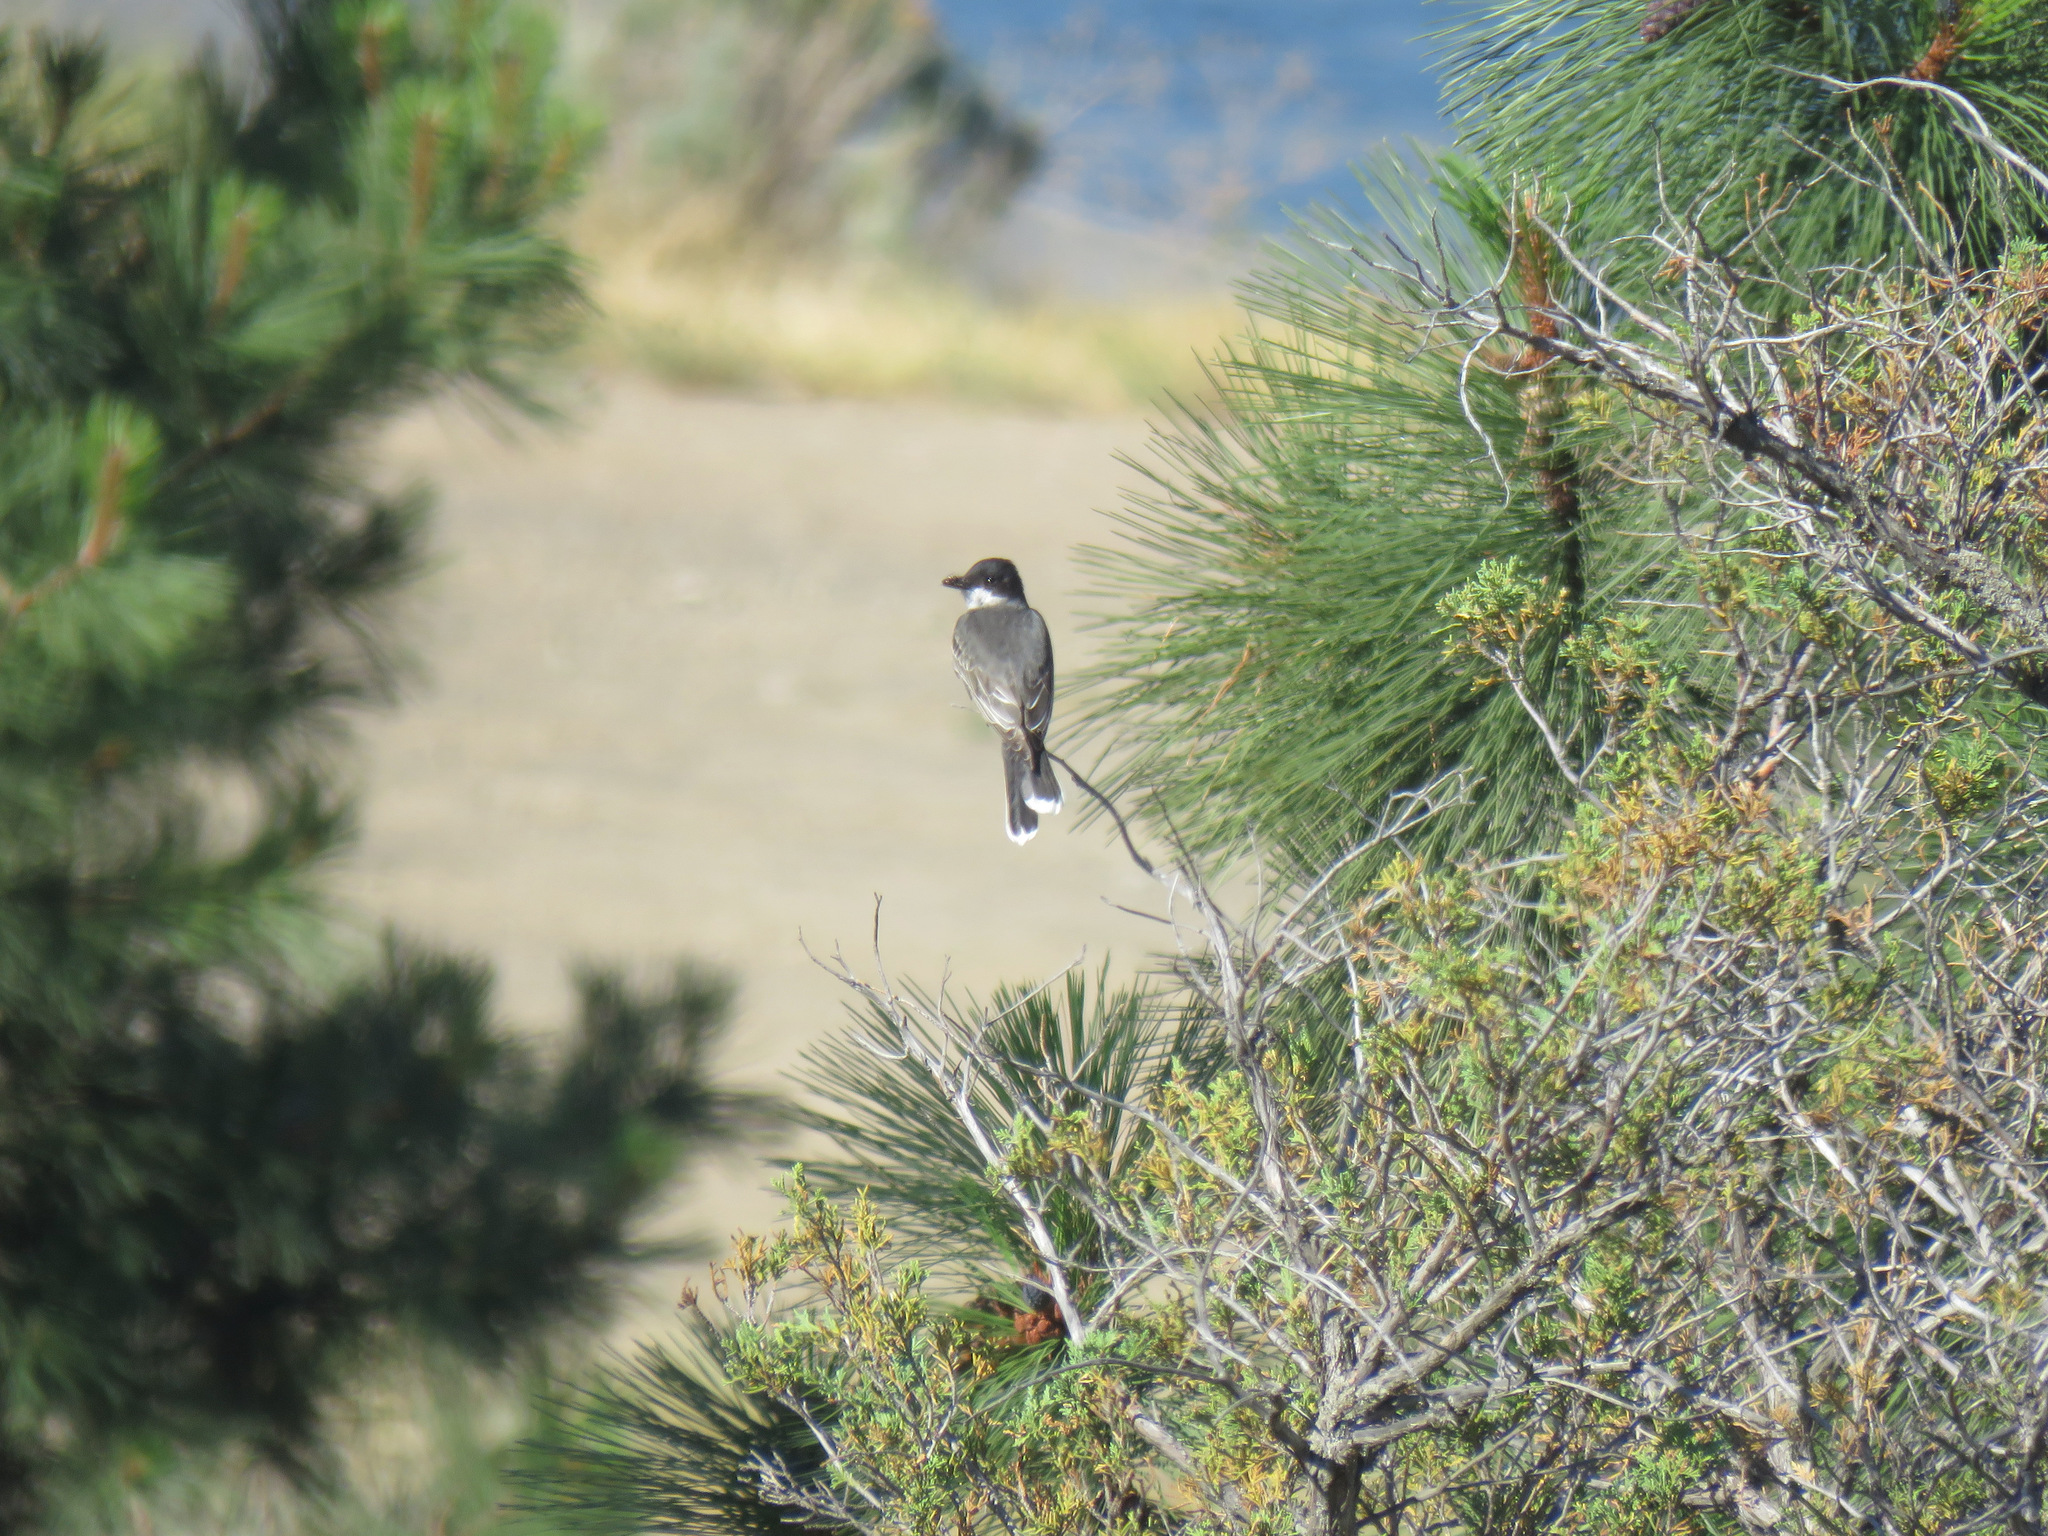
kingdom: Animalia
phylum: Chordata
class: Aves
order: Passeriformes
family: Tyrannidae
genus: Tyrannus
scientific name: Tyrannus tyrannus
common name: Eastern kingbird
